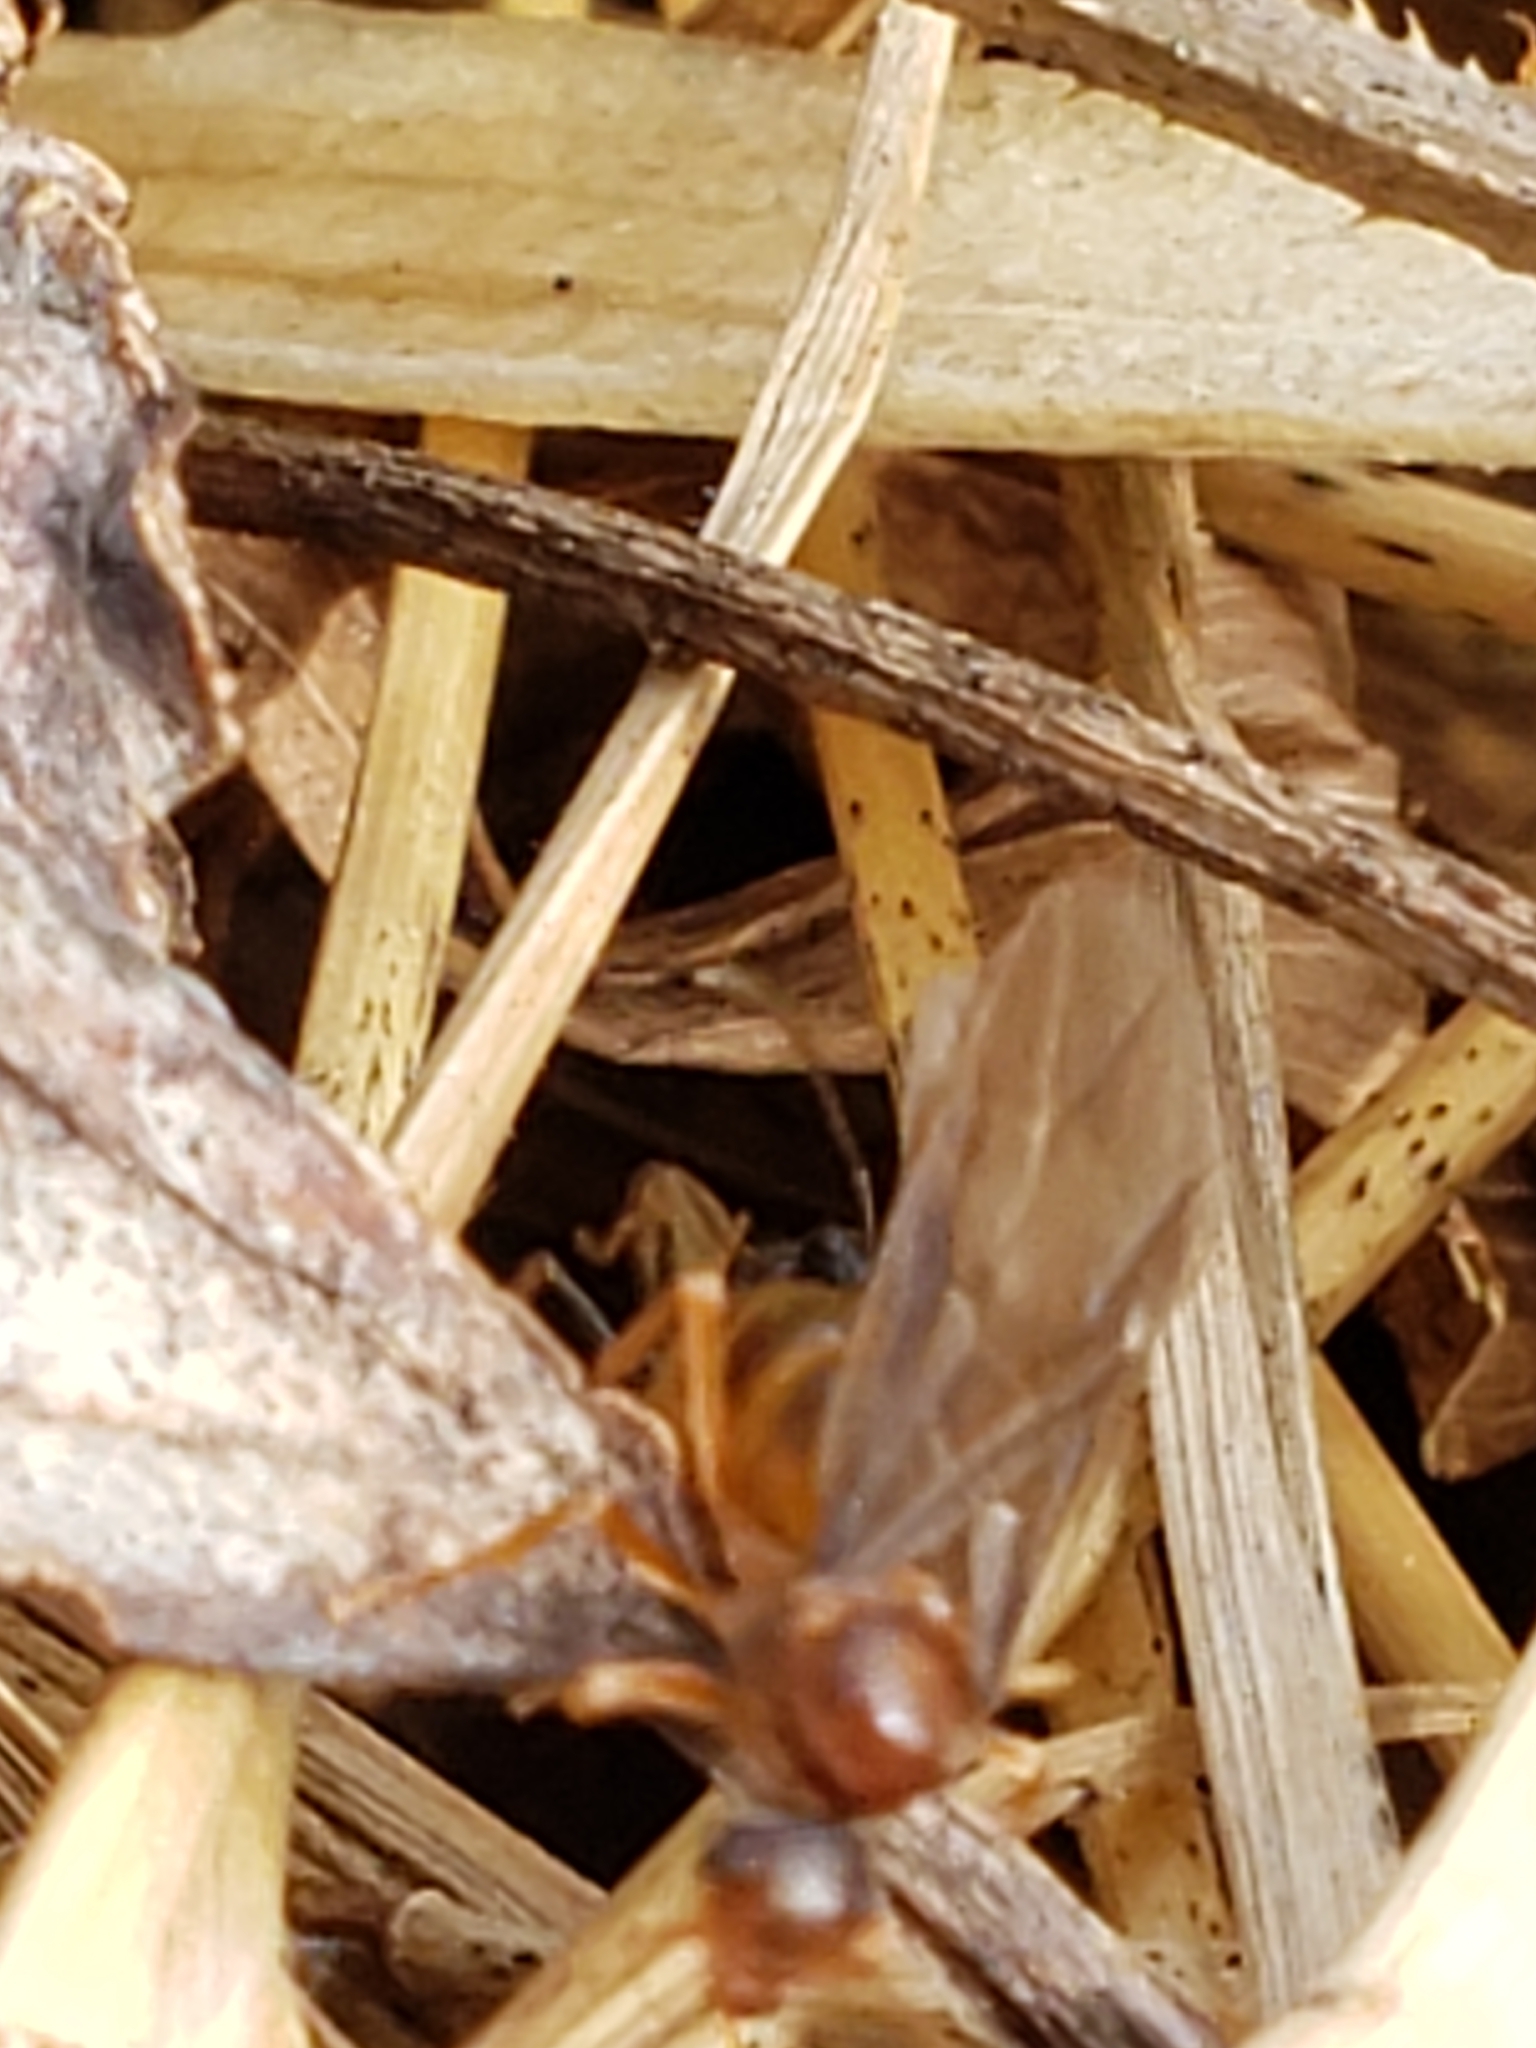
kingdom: Animalia
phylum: Arthropoda
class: Insecta
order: Hymenoptera
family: Formicidae
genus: Prenolepis
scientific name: Prenolepis imparis
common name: Small honey ant
